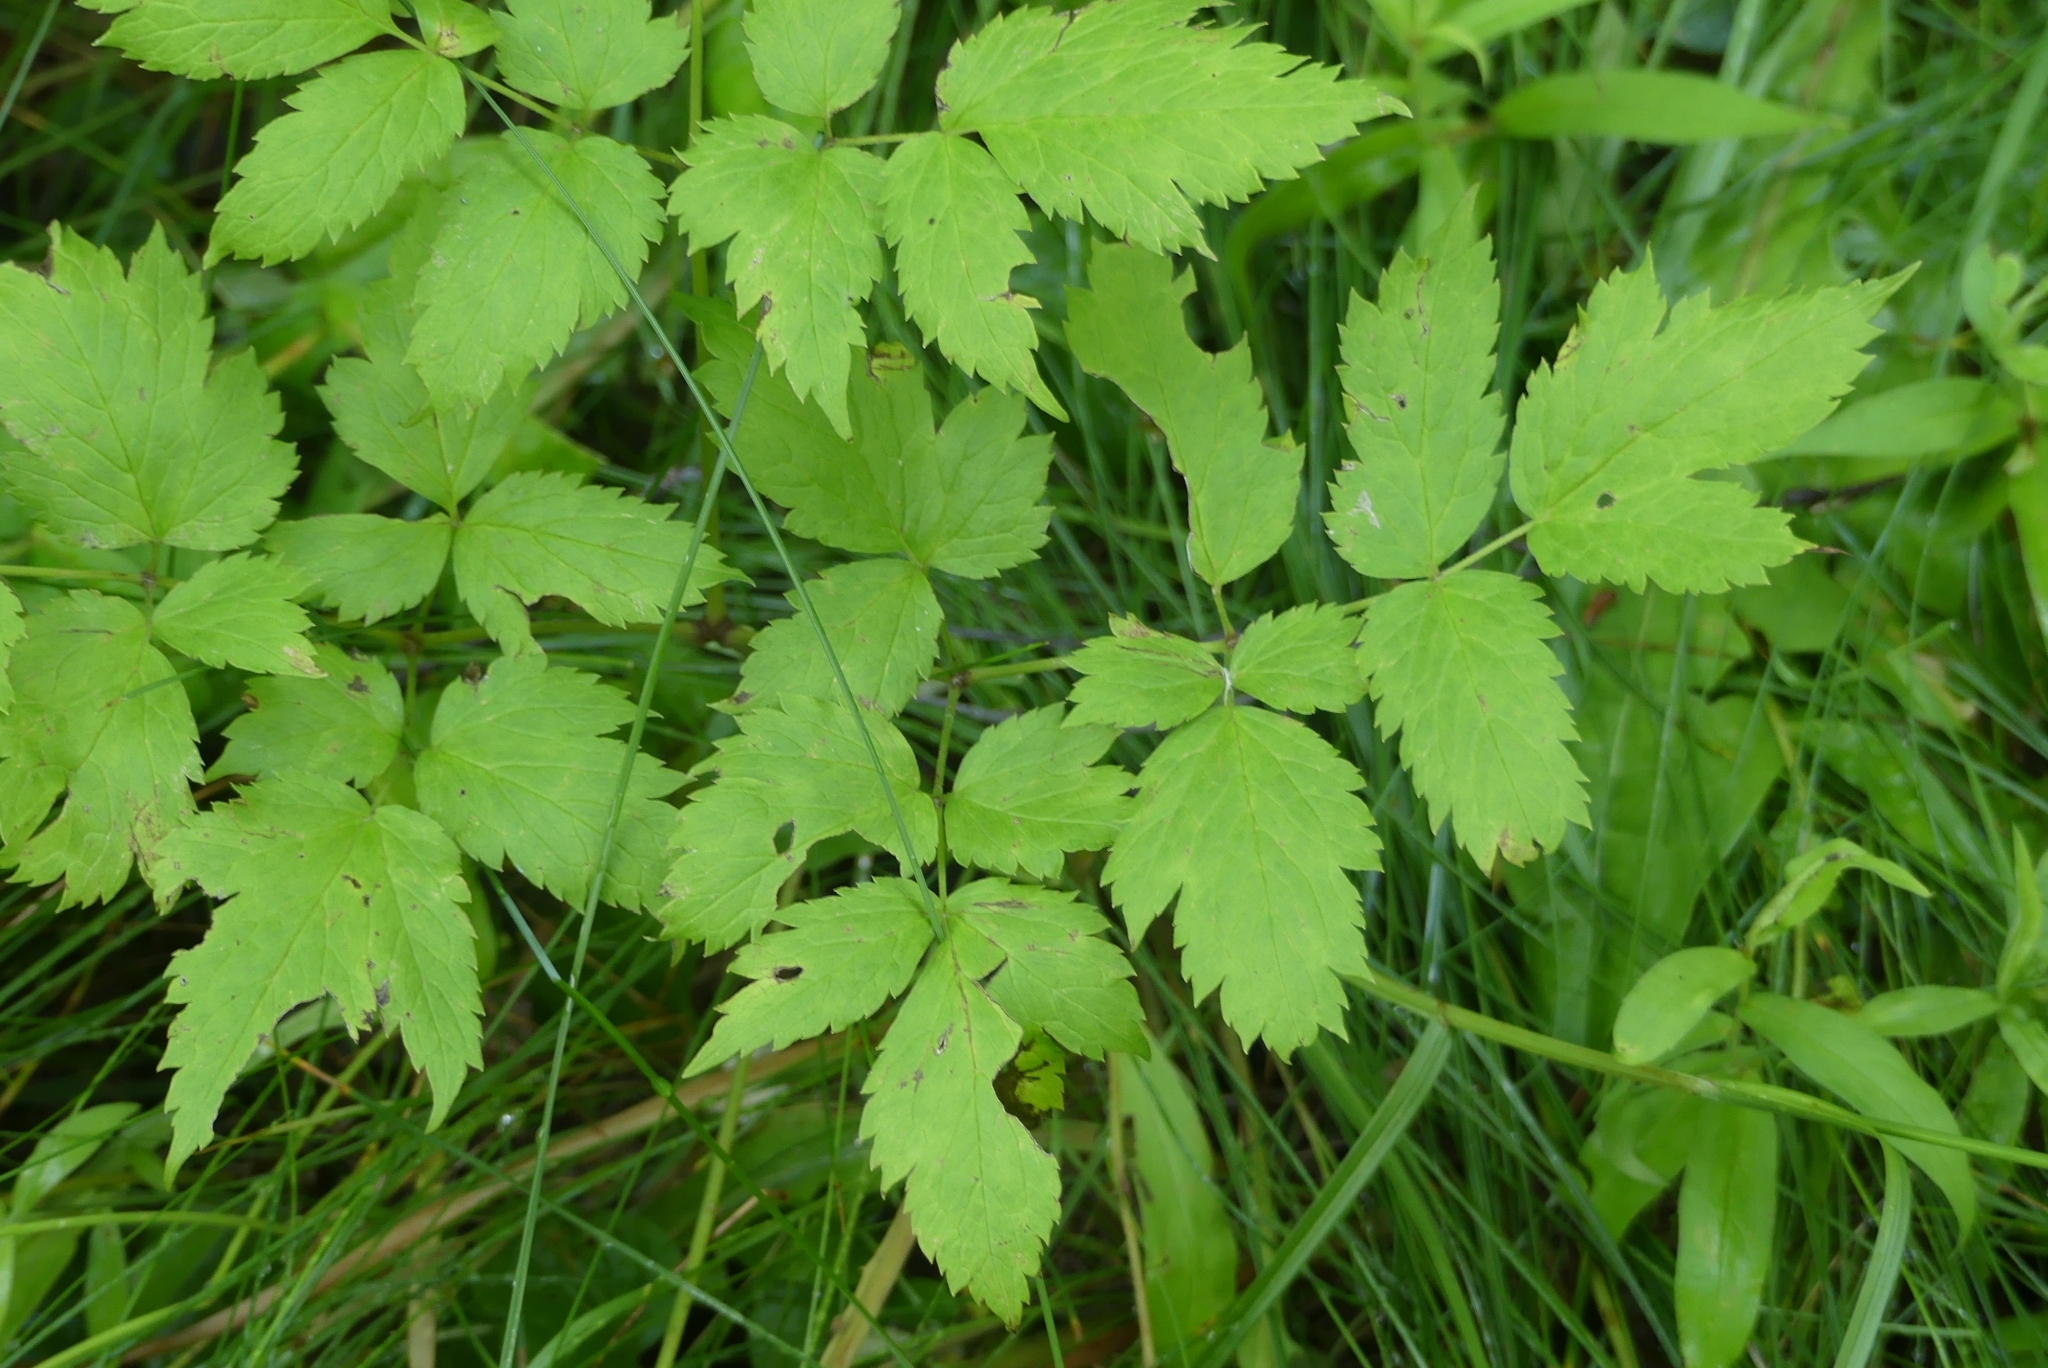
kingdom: Plantae
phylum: Tracheophyta
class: Magnoliopsida
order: Ranunculales
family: Ranunculaceae
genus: Actaea
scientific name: Actaea rubra
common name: Red baneberry
